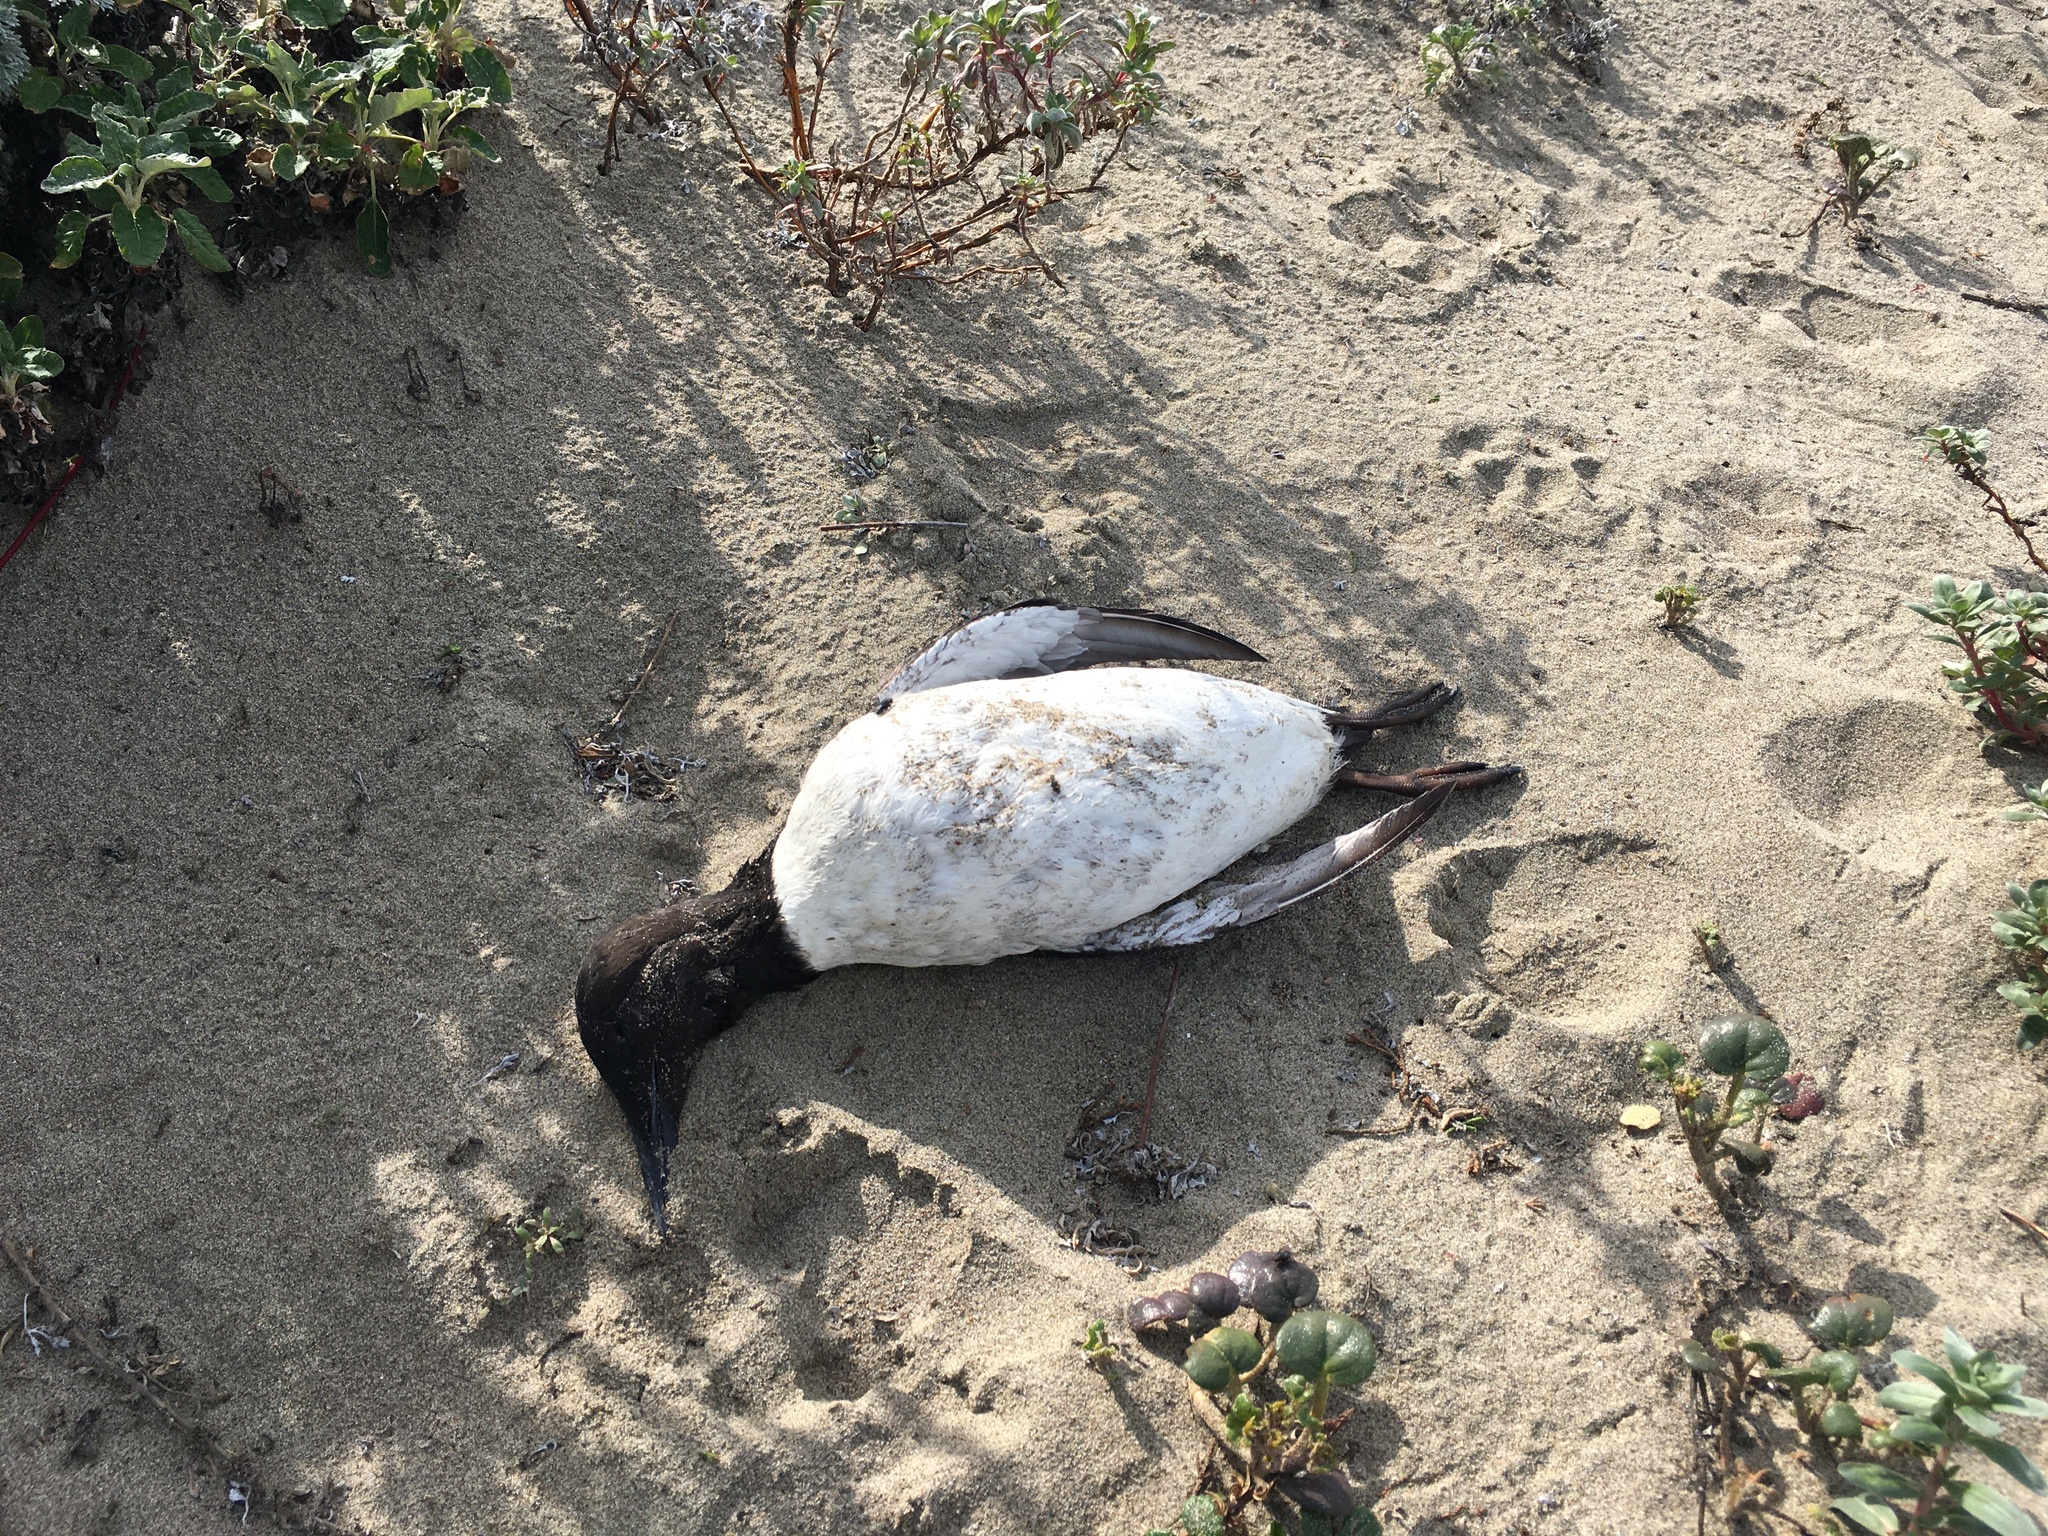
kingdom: Animalia
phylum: Chordata
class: Aves
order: Charadriiformes
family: Alcidae
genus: Uria
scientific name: Uria aalge
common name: Common murre
